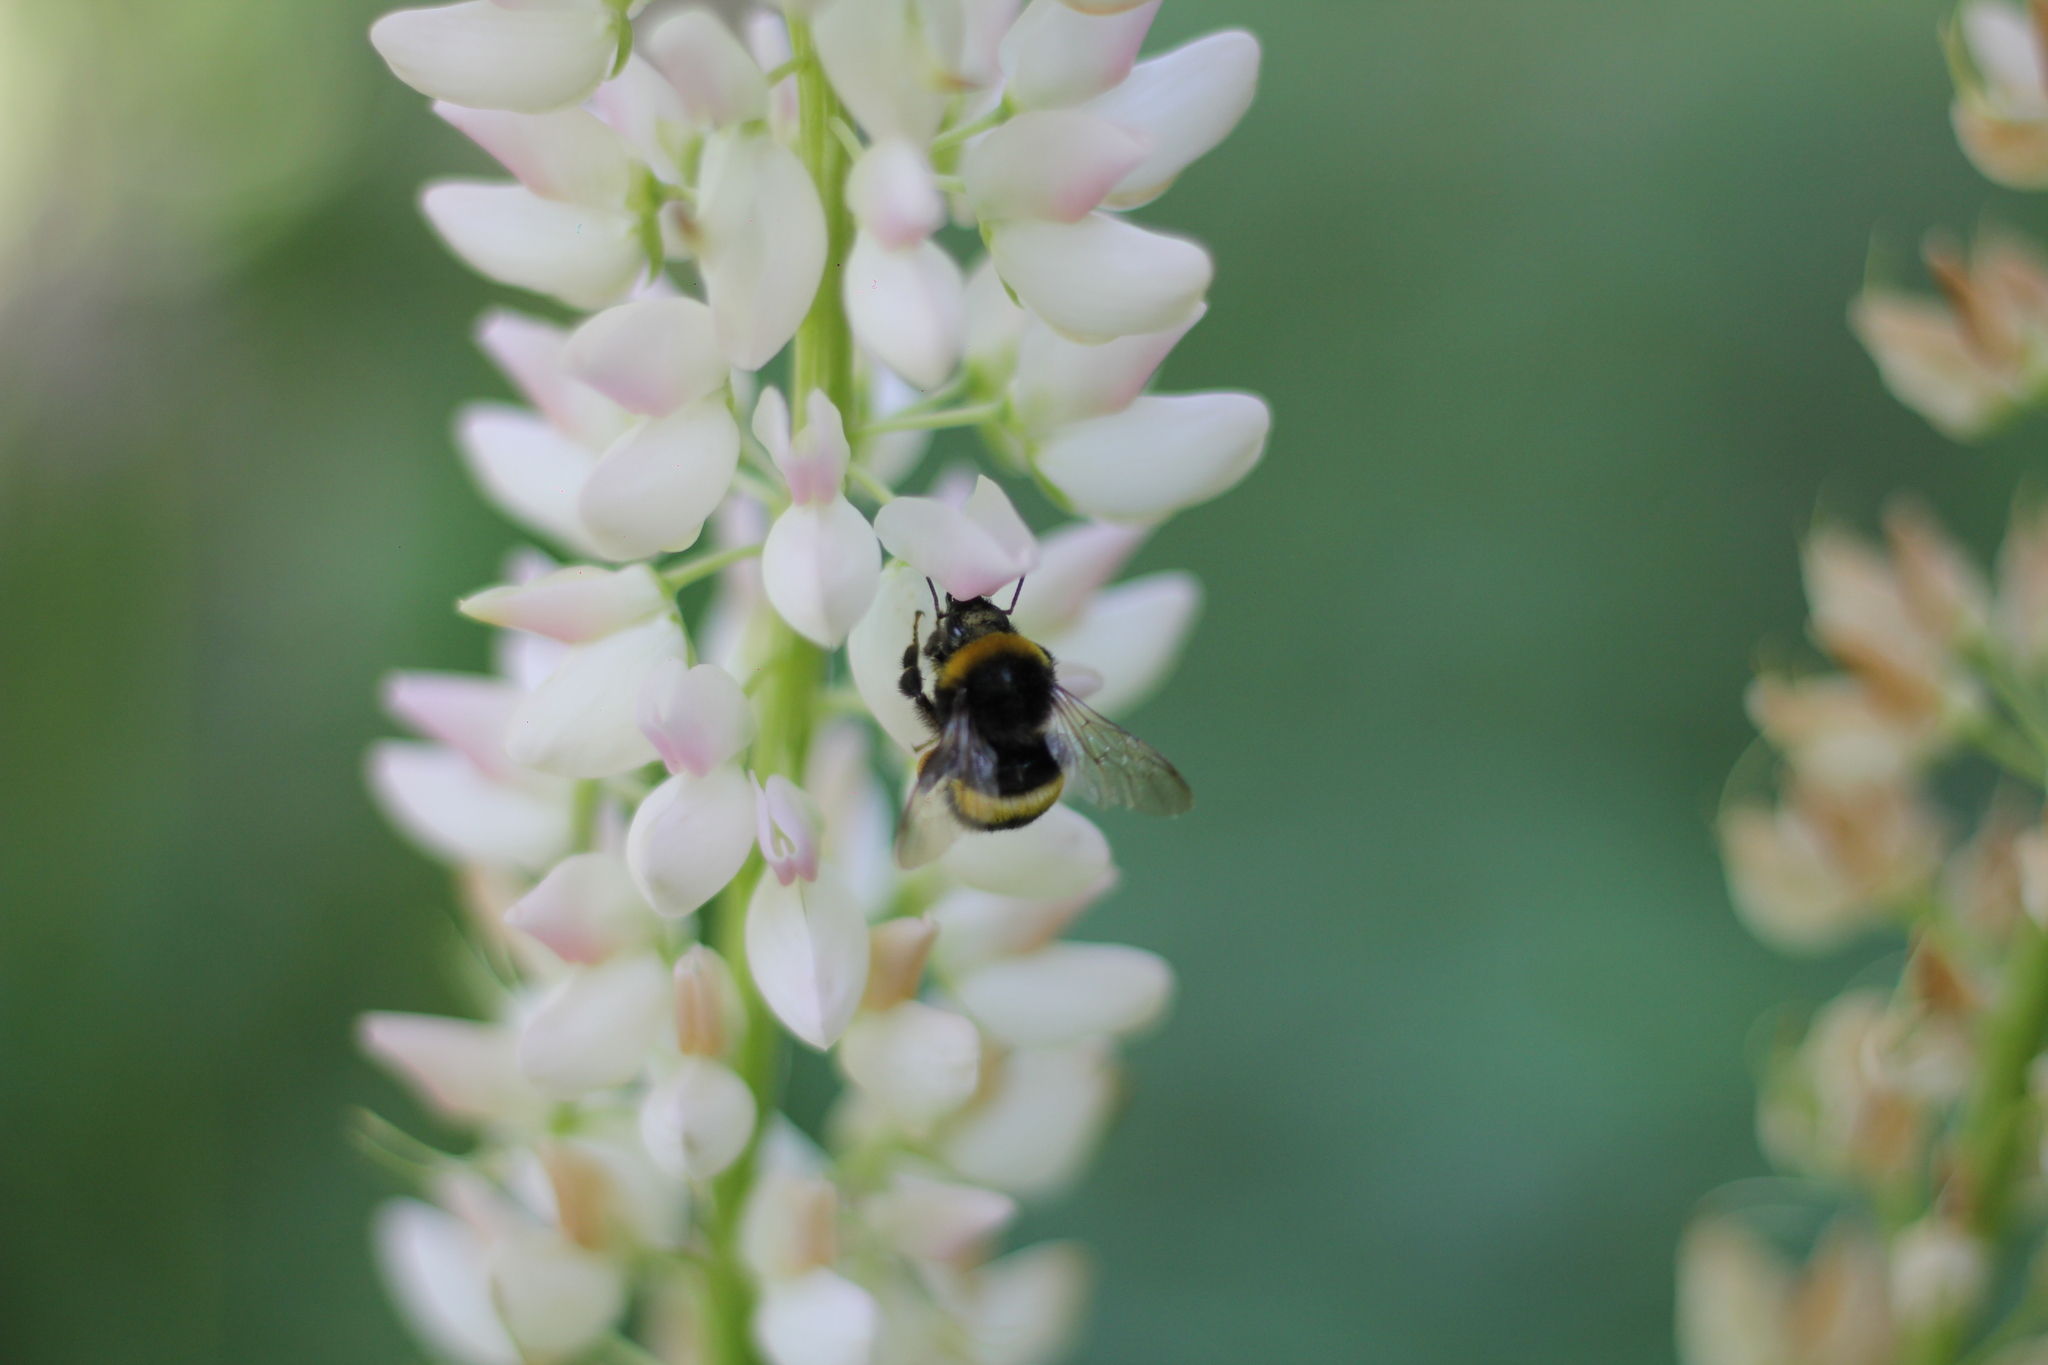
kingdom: Animalia
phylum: Arthropoda
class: Insecta
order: Hymenoptera
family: Apidae
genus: Bombus
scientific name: Bombus terrestris
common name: Buff-tailed bumblebee
